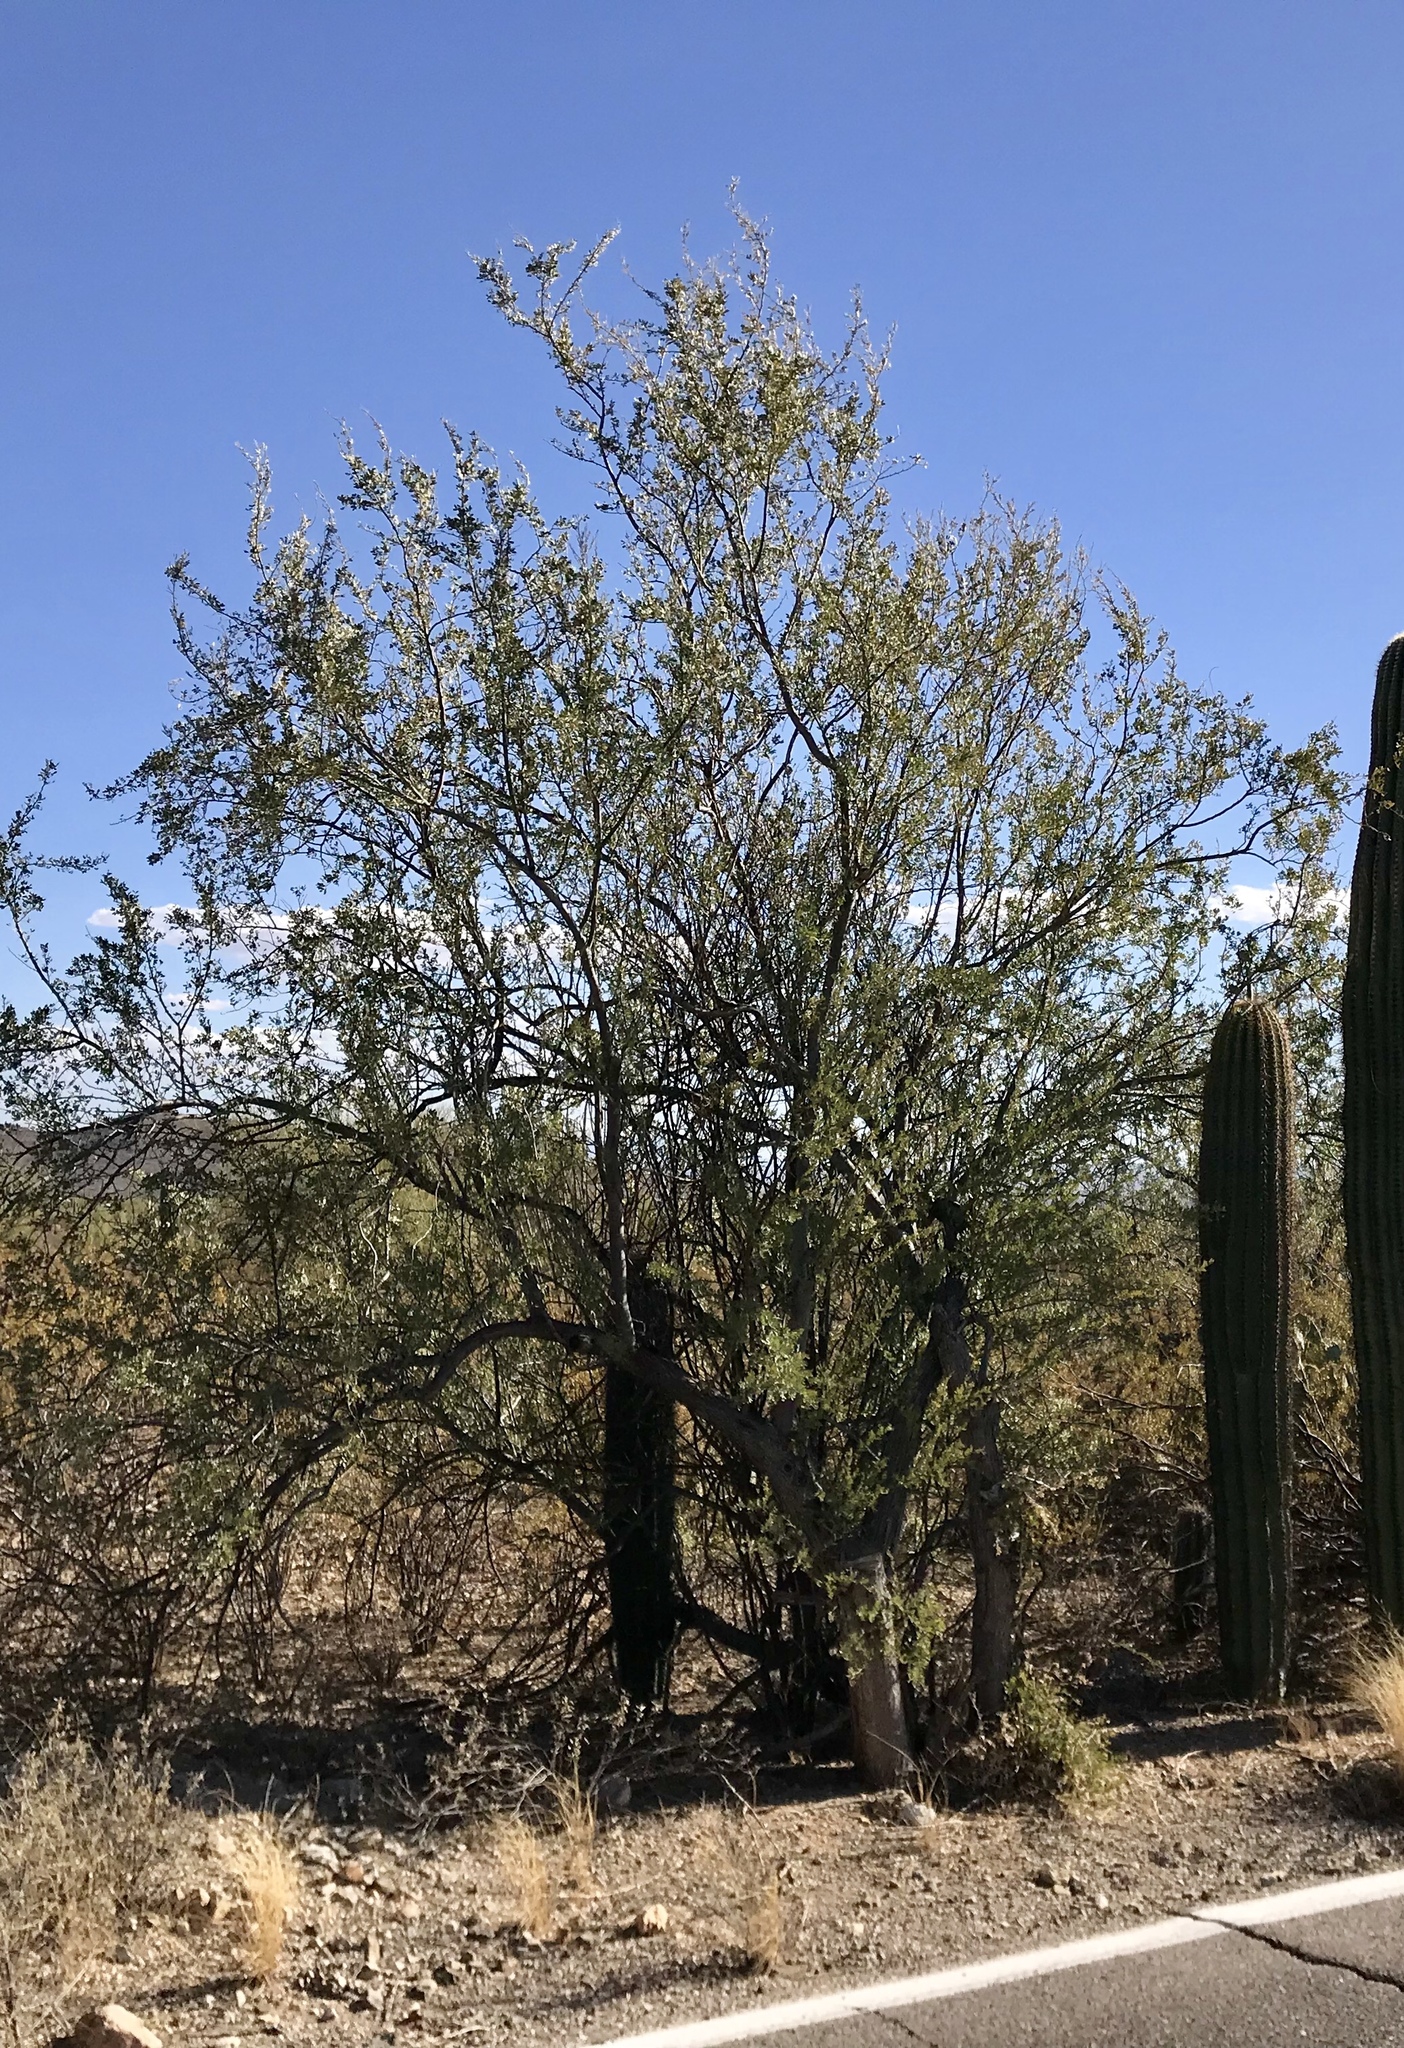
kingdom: Plantae
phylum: Tracheophyta
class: Magnoliopsida
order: Fabales
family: Fabaceae
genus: Olneya
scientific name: Olneya tesota
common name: Desert ironwood
